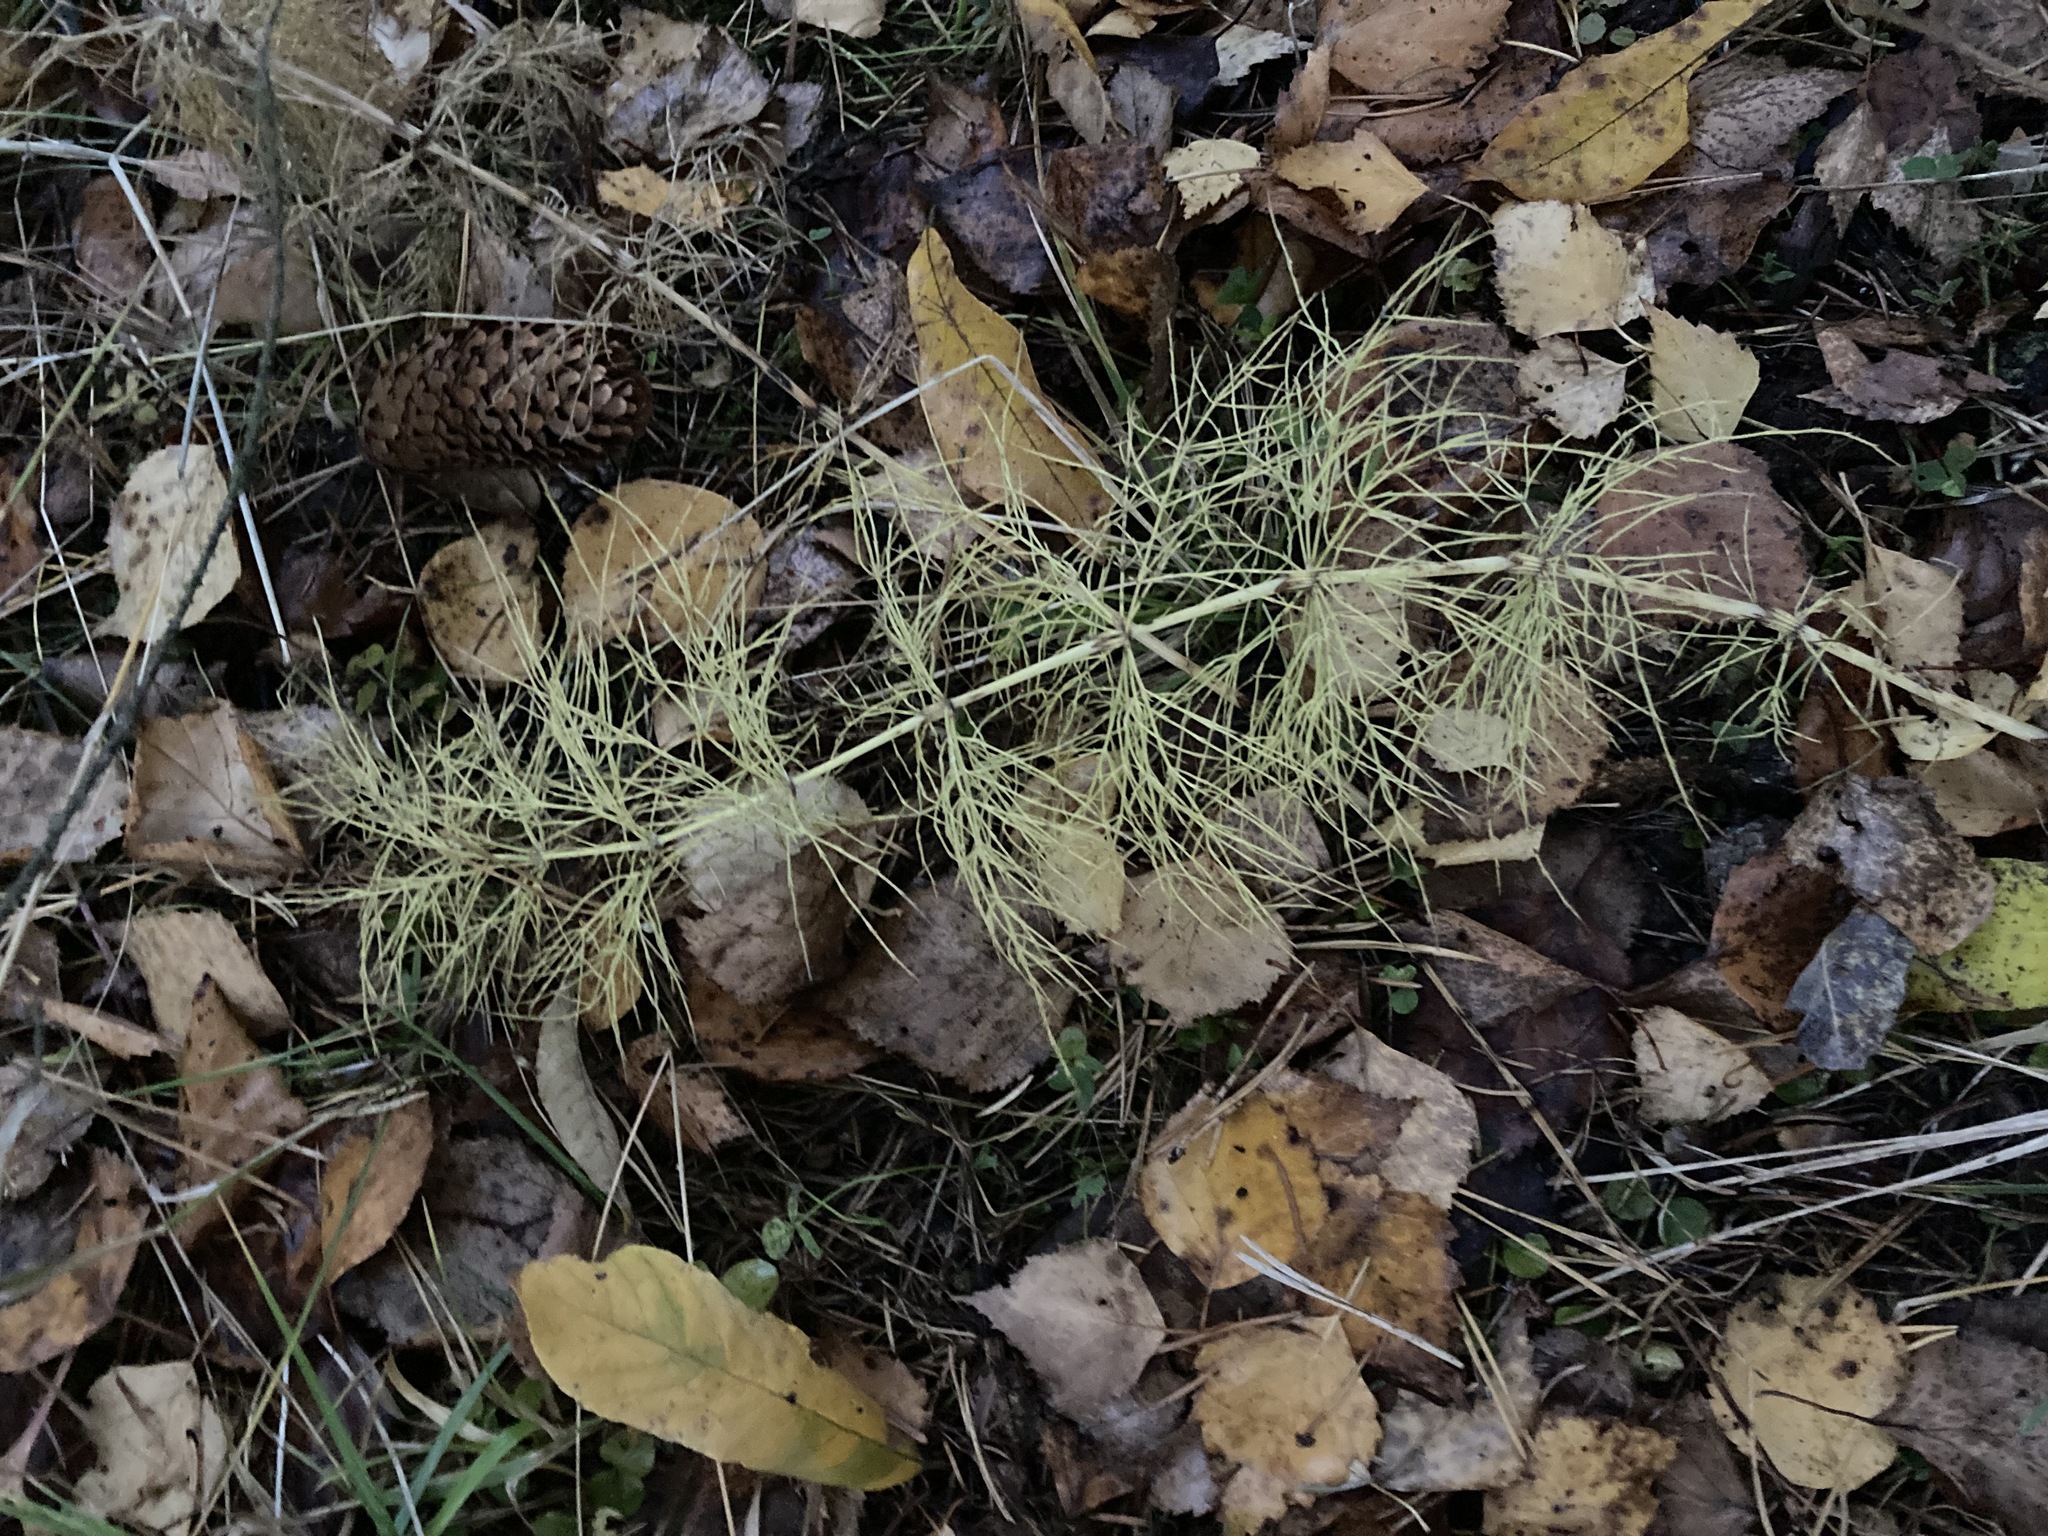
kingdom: Plantae
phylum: Tracheophyta
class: Polypodiopsida
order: Equisetales
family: Equisetaceae
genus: Equisetum
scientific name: Equisetum sylvaticum
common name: Wood horsetail
